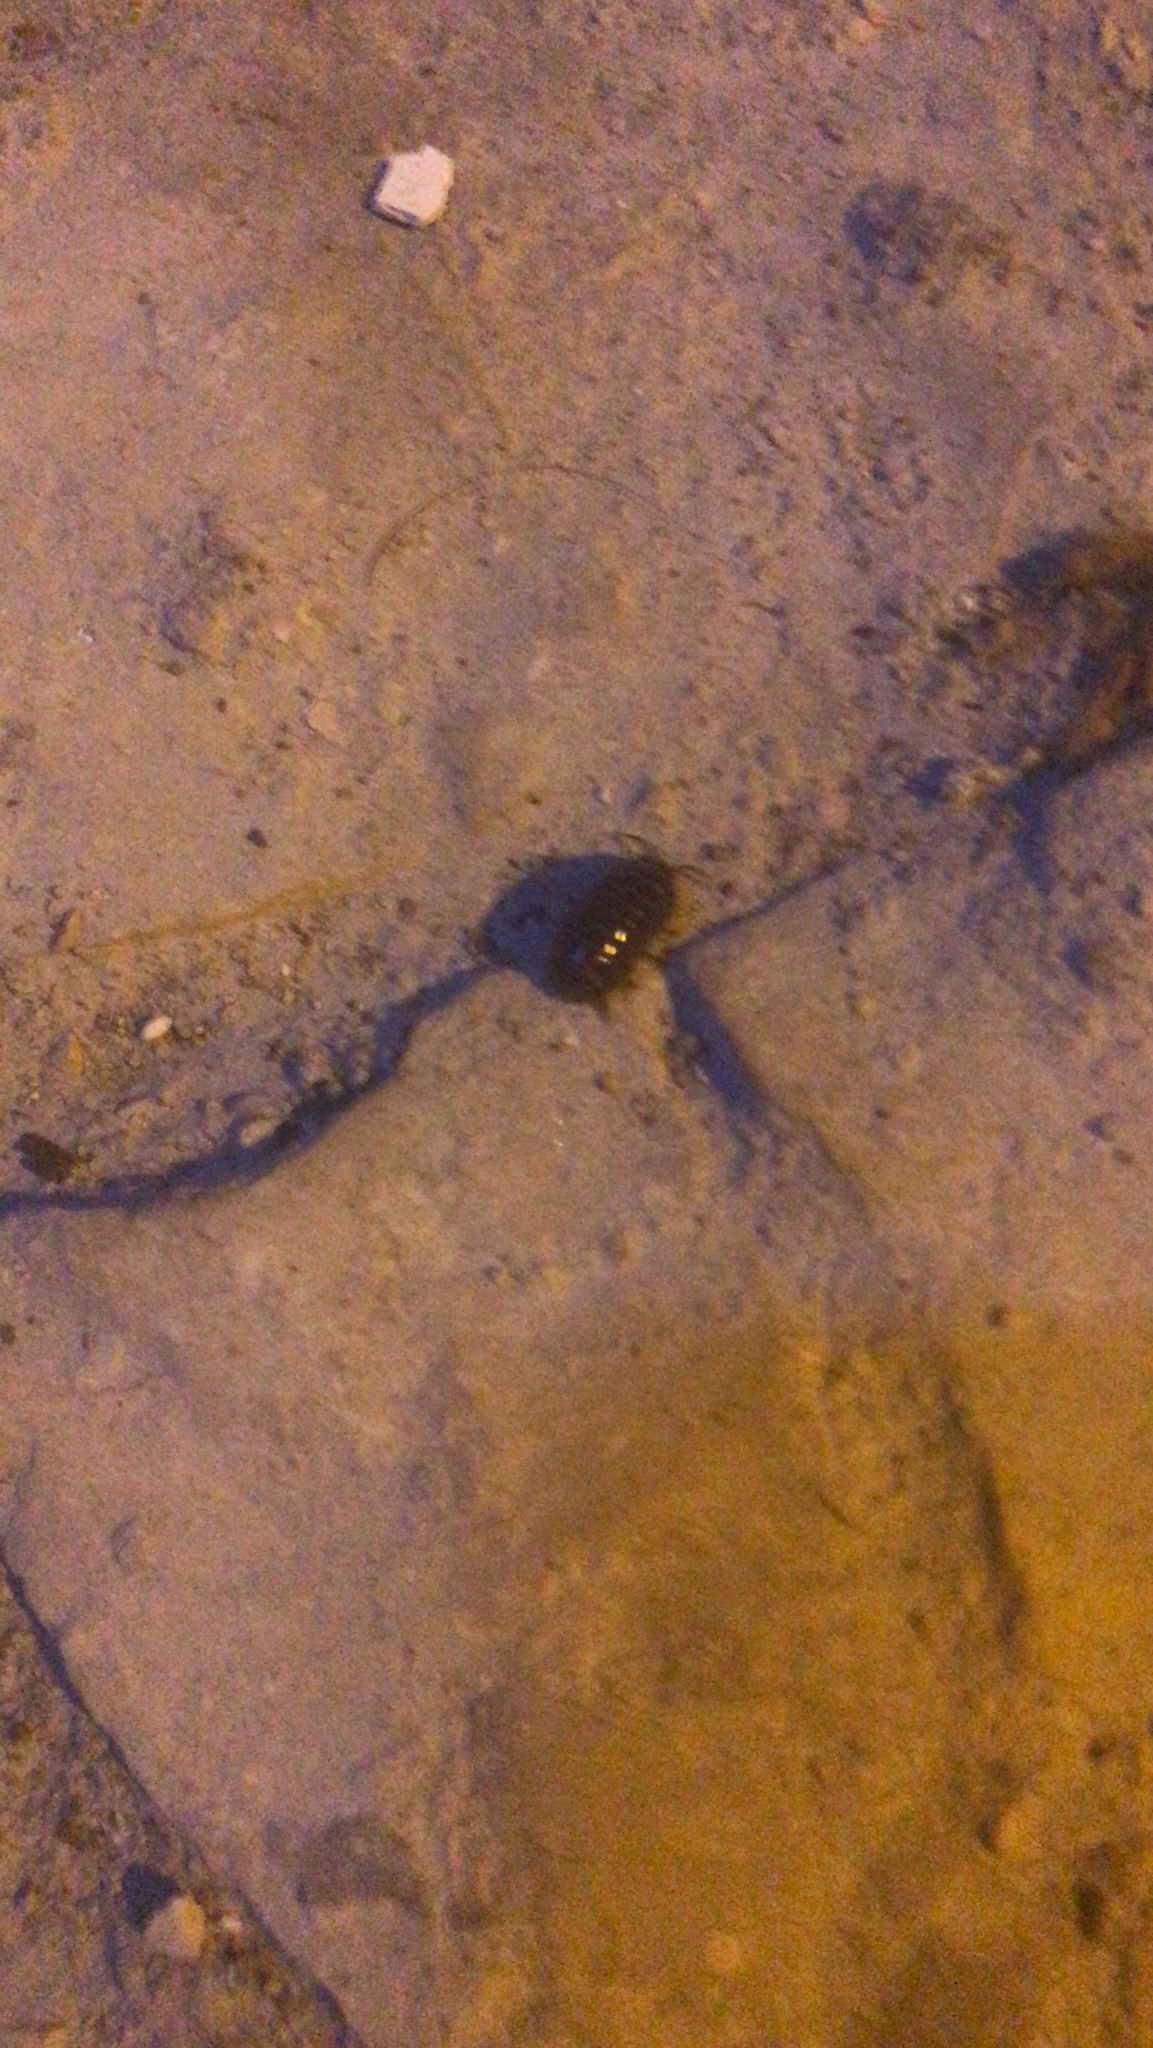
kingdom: Animalia
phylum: Arthropoda
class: Malacostraca
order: Isopoda
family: Armadillidiidae
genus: Armadillidium
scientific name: Armadillidium vulgare
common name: Common pill woodlouse
